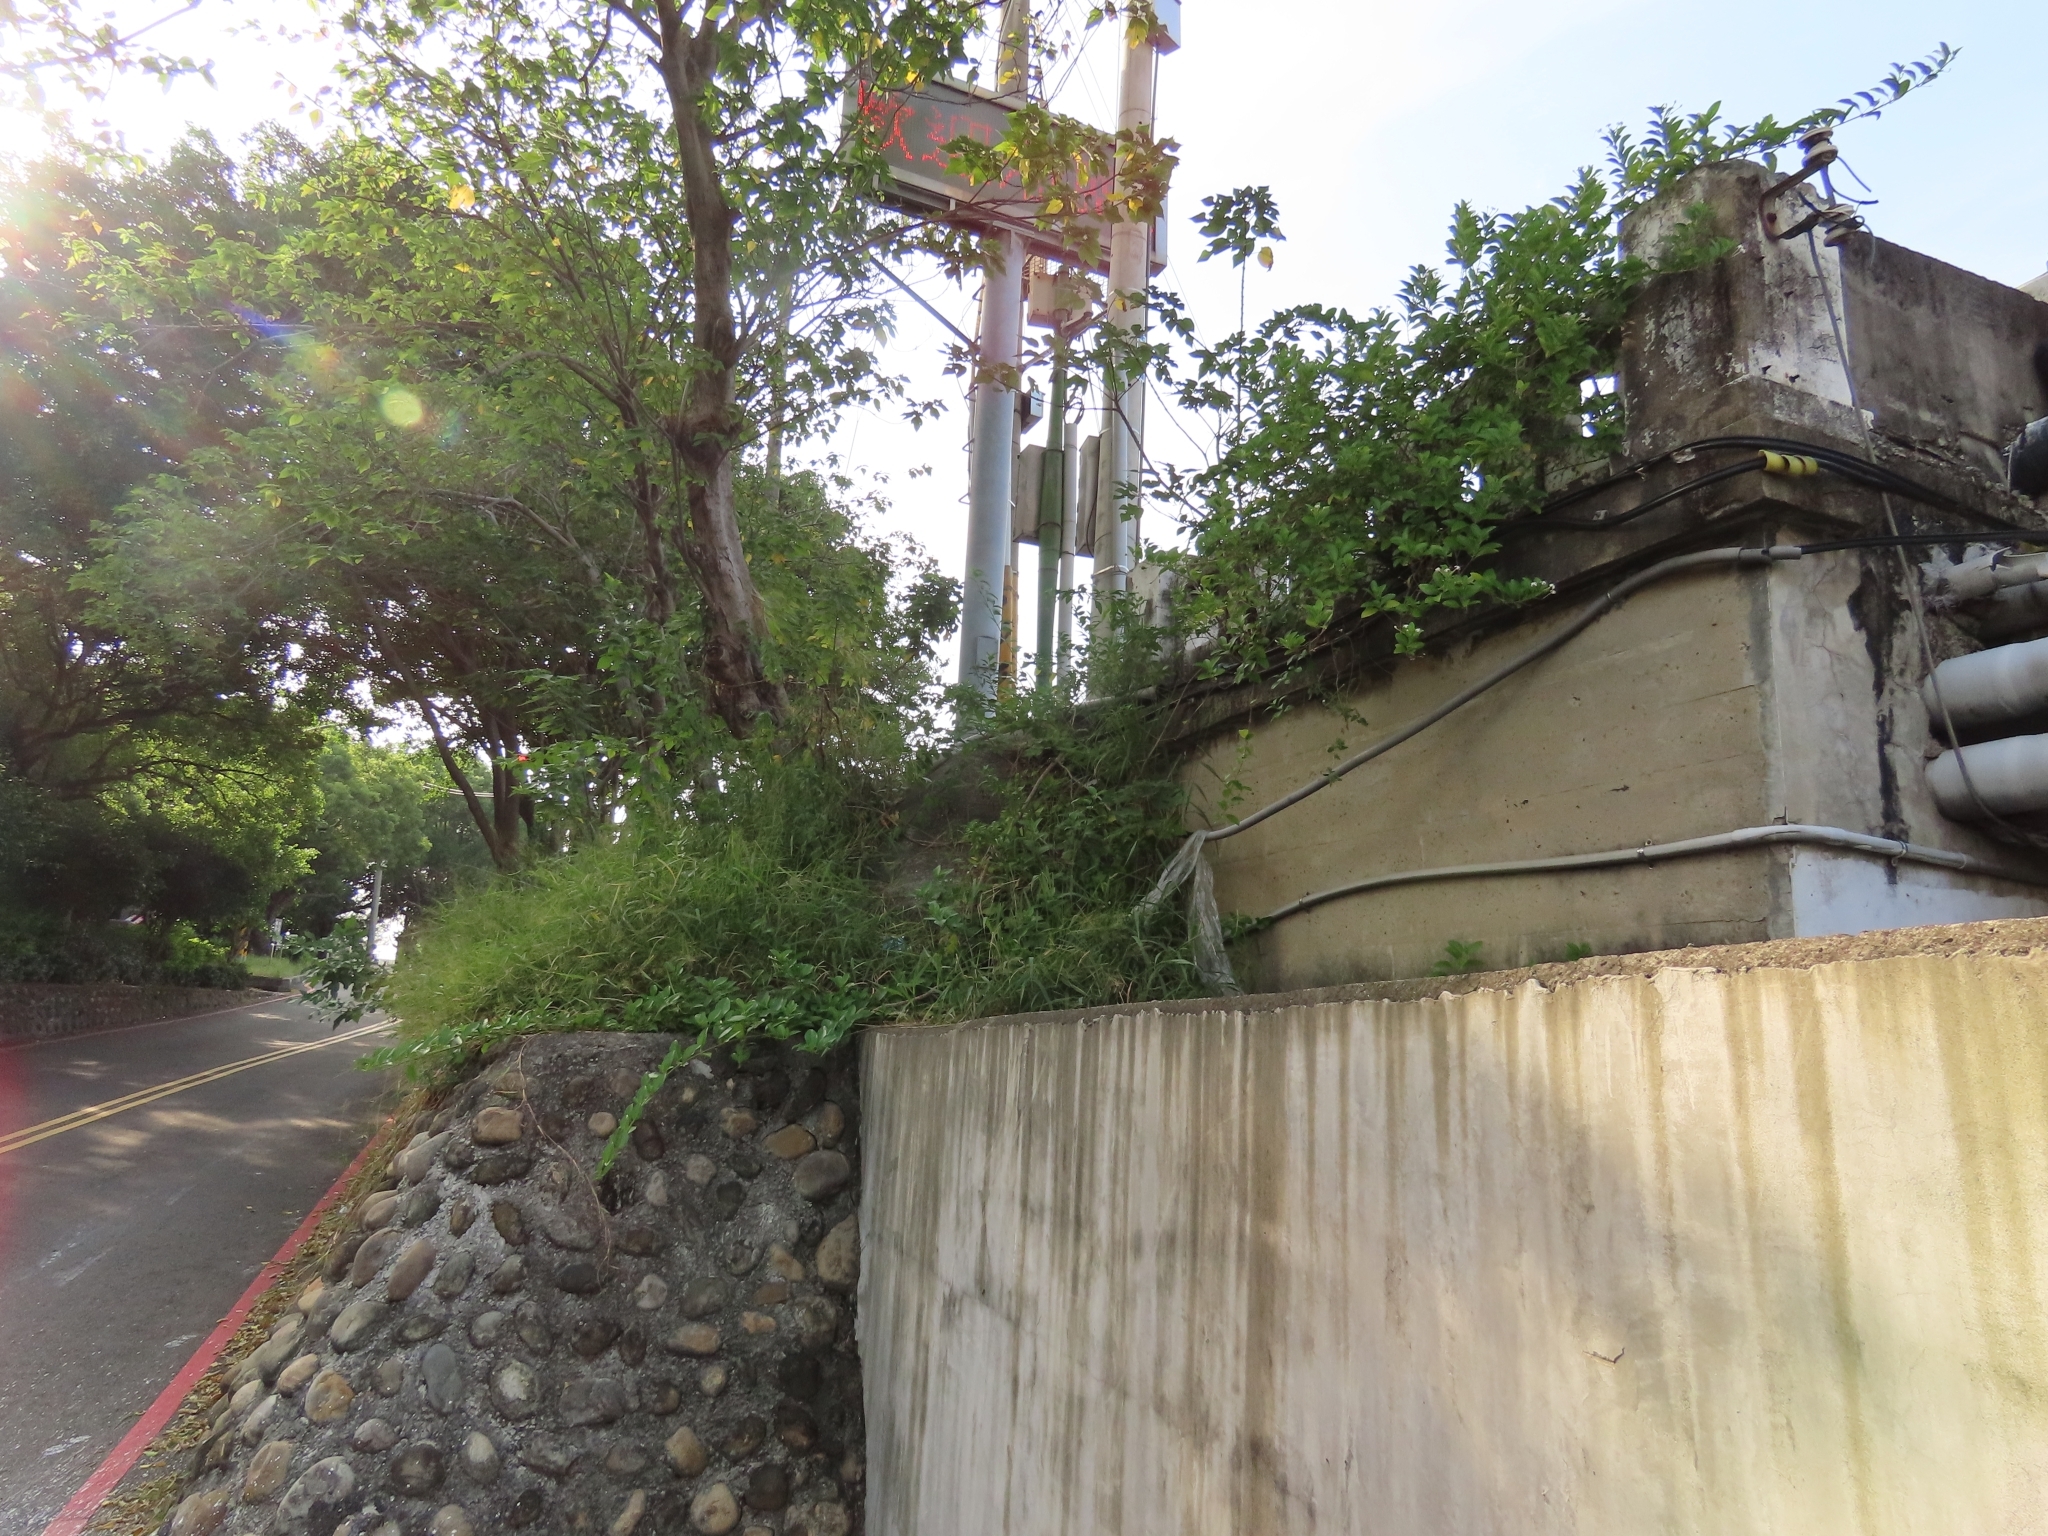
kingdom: Plantae
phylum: Tracheophyta
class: Magnoliopsida
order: Lamiales
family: Lamiaceae
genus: Volkameria
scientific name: Volkameria inermis
